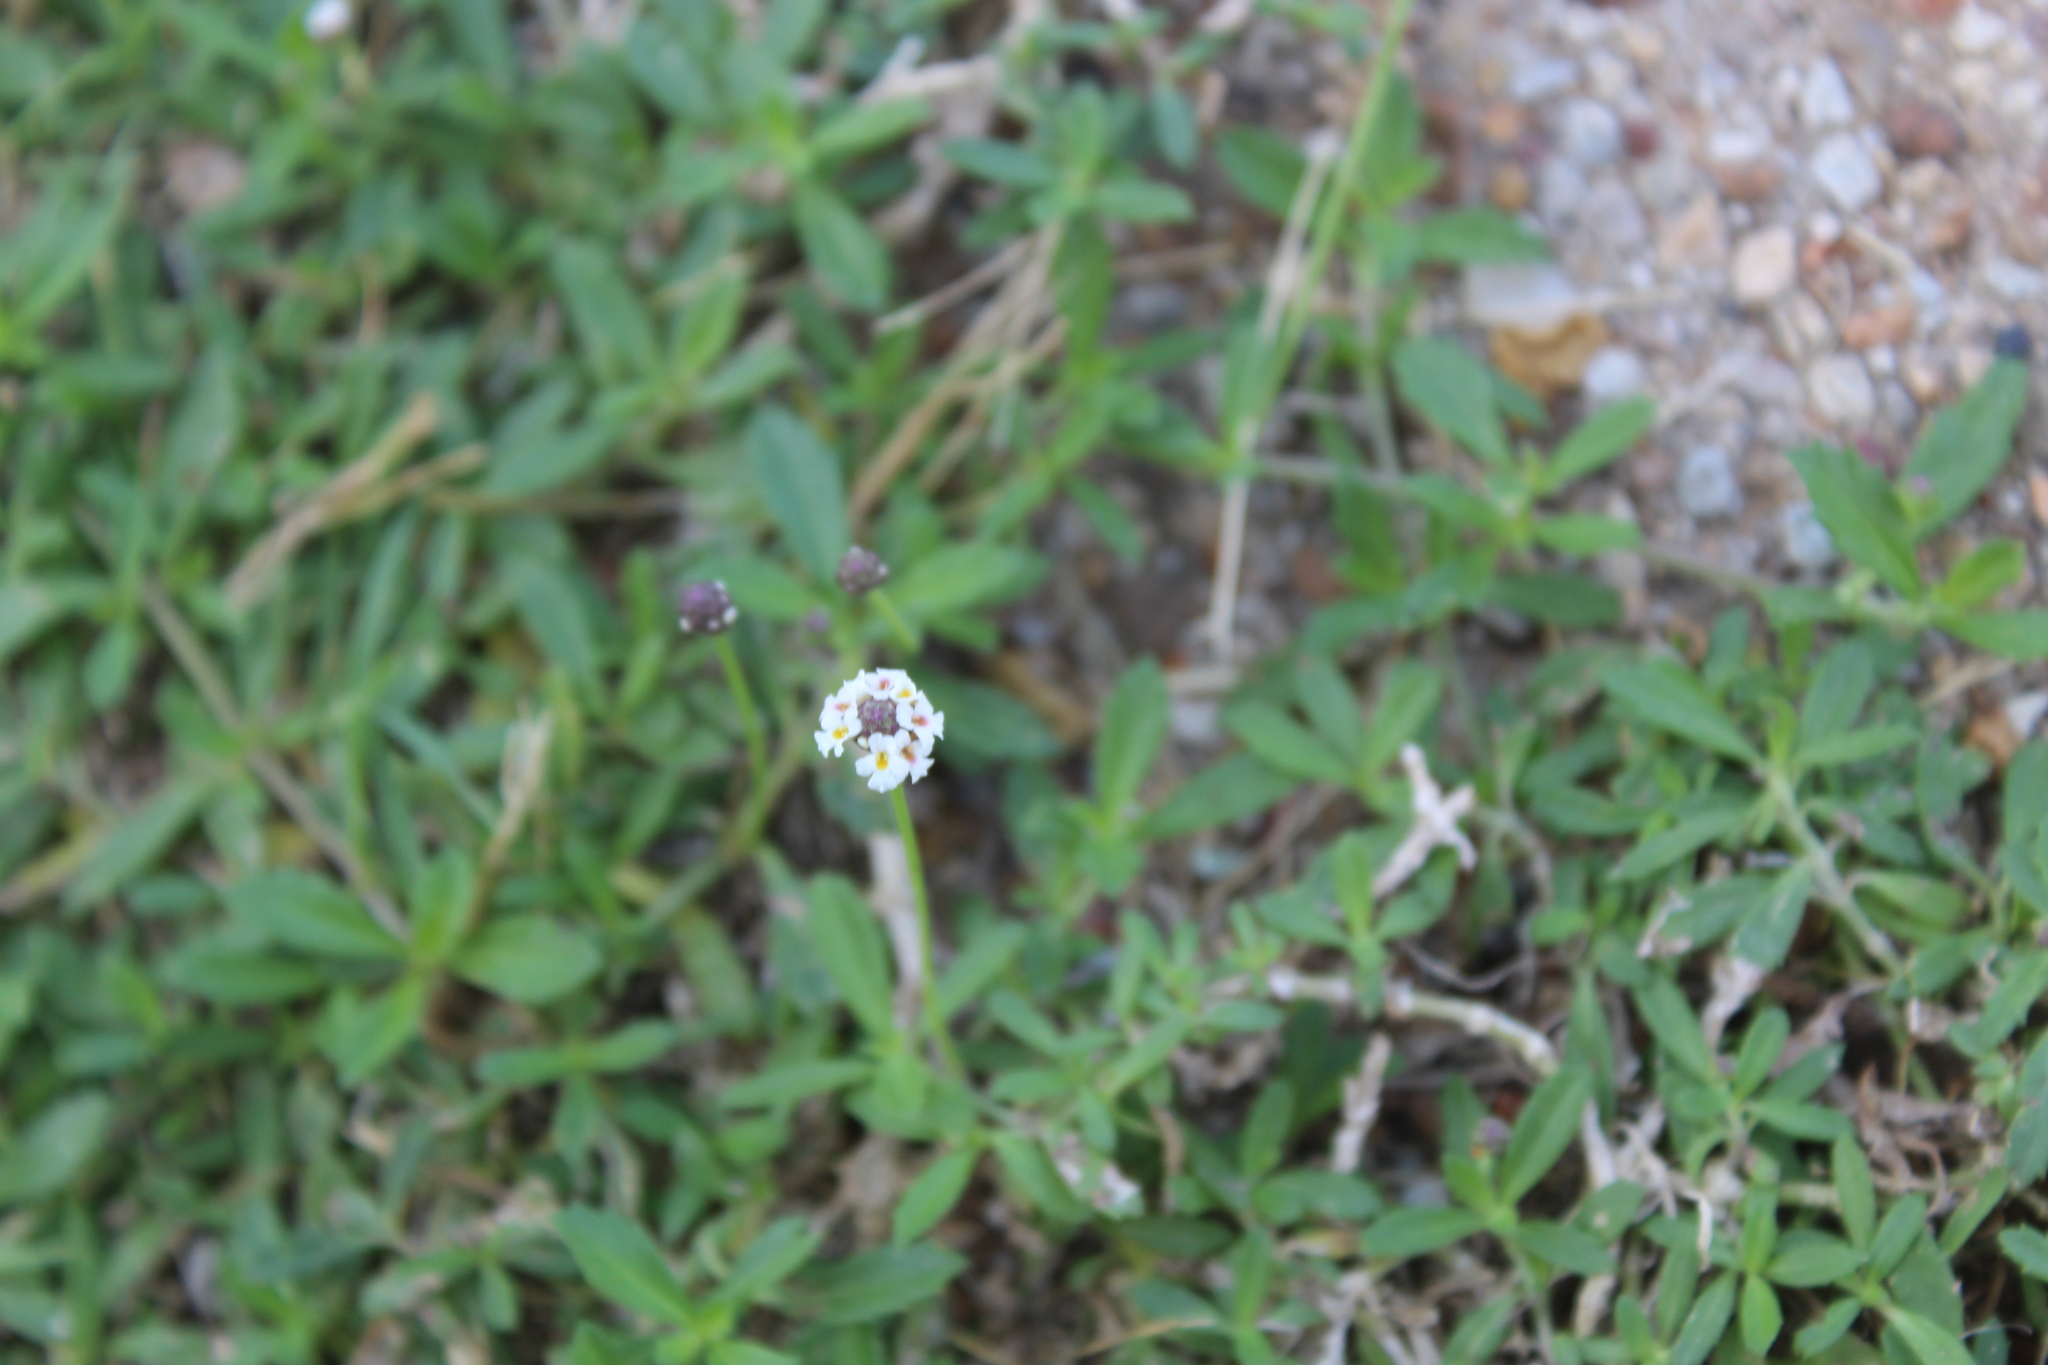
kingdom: Plantae
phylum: Tracheophyta
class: Magnoliopsida
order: Lamiales
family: Verbenaceae
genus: Phyla
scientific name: Phyla nodiflora
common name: Frogfruit
